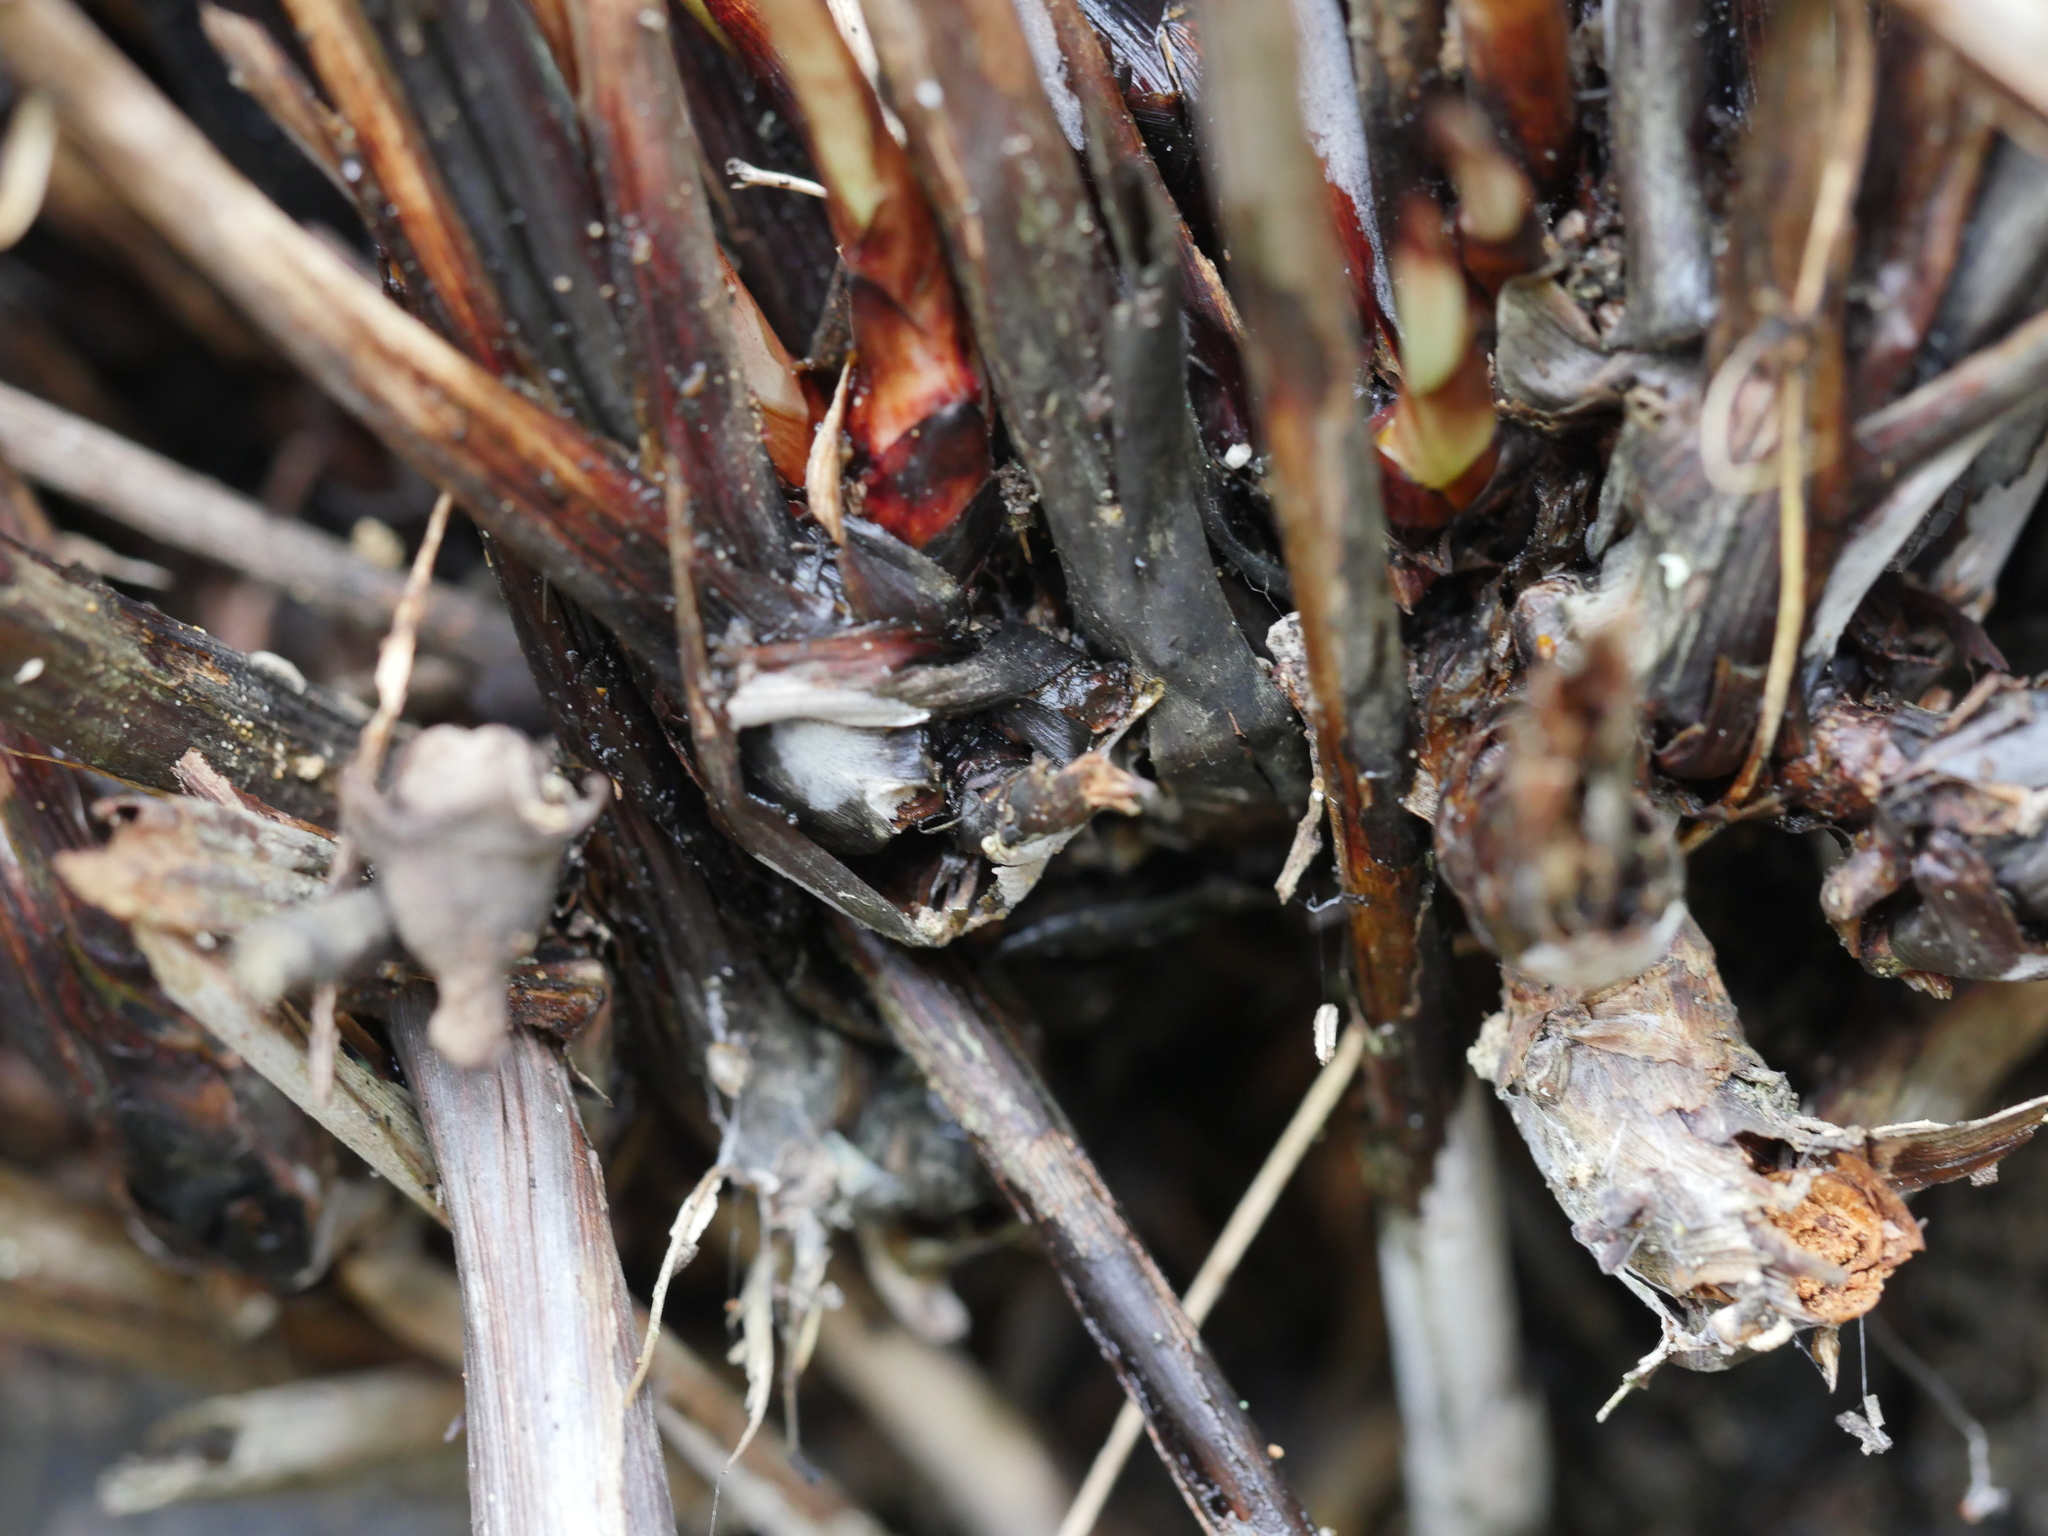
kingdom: Plantae
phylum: Tracheophyta
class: Liliopsida
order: Poales
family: Cyperaceae
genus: Gahnia
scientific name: Gahnia lacera
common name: Sawsedge
